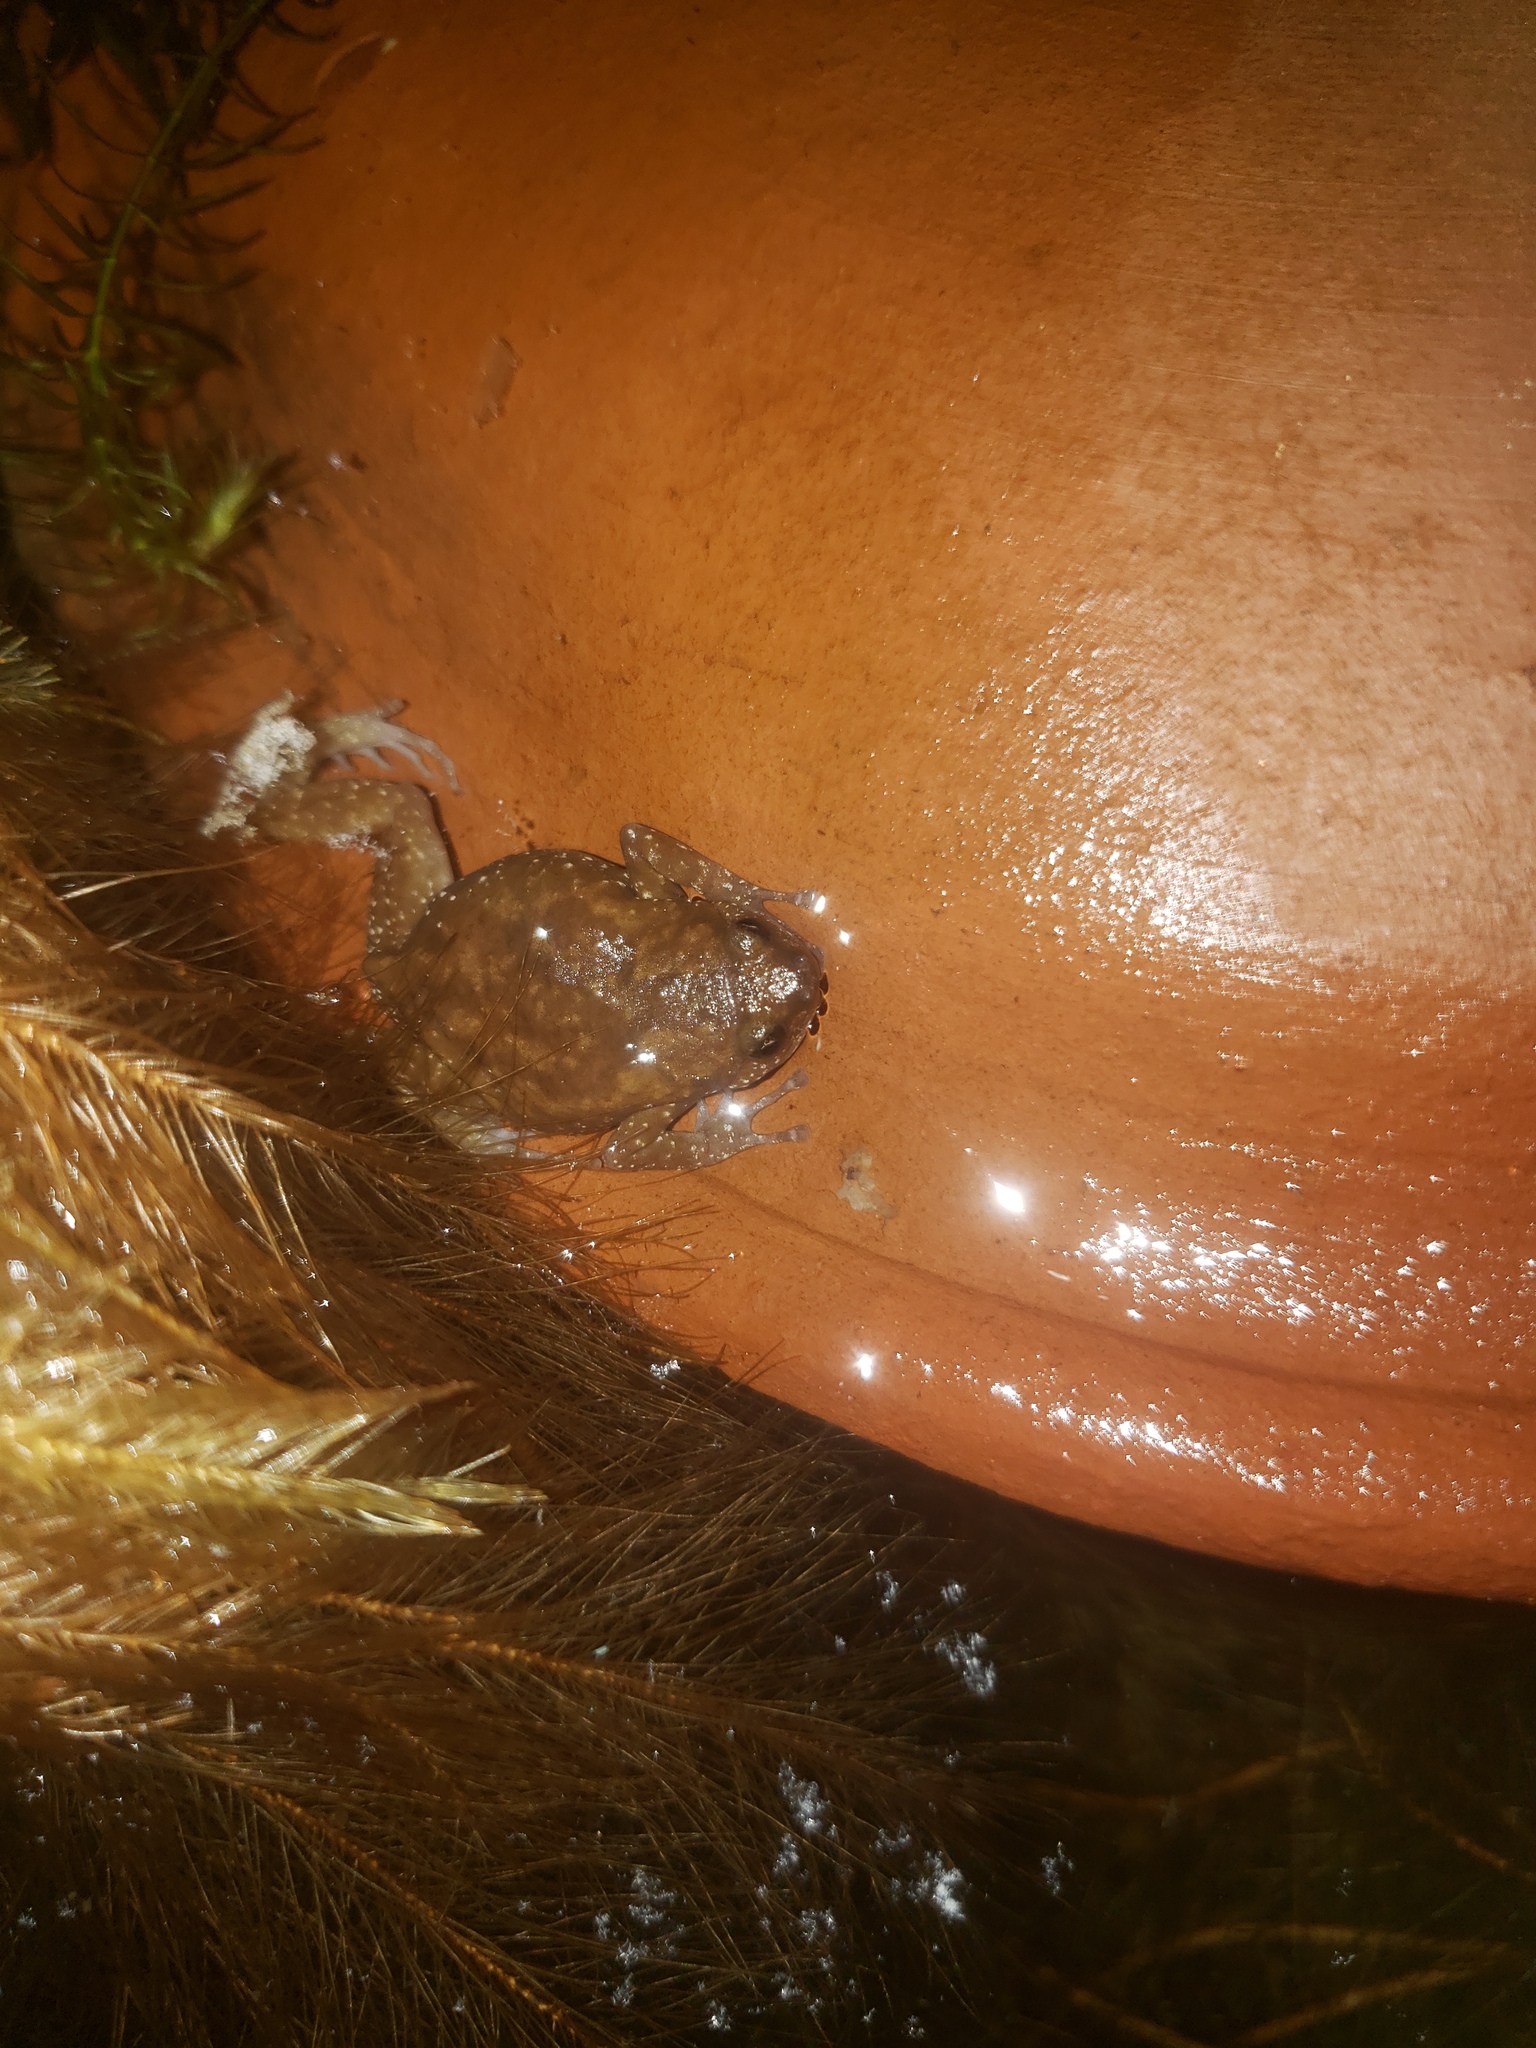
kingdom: Animalia
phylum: Chordata
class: Amphibia
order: Anura
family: Microhylidae
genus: Uperodon
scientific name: Uperodon rohani
